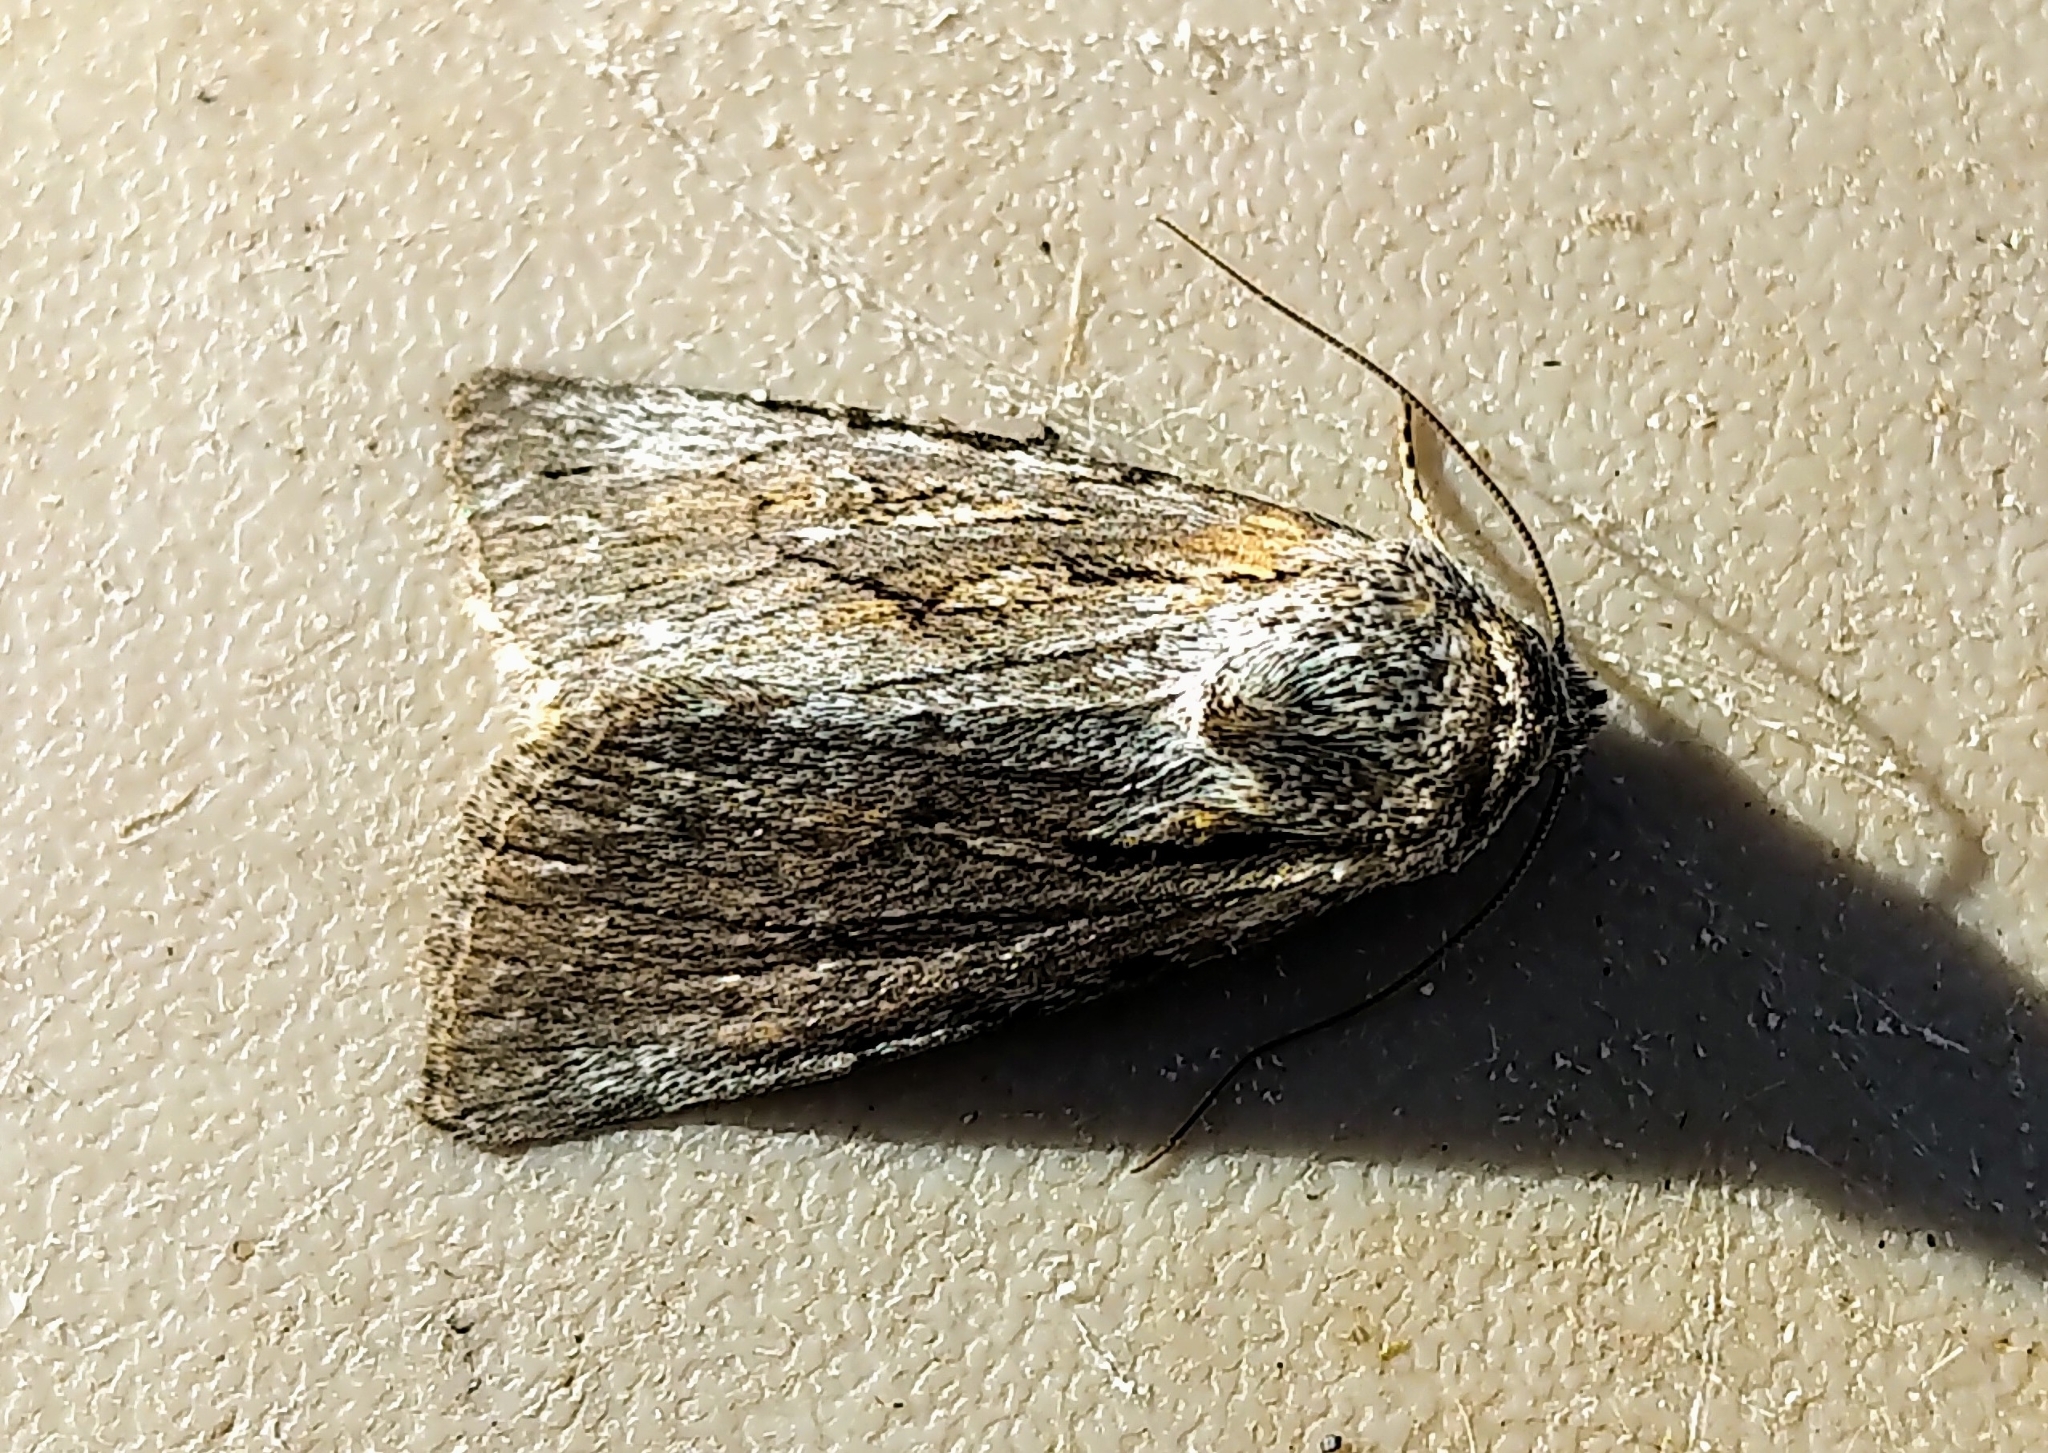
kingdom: Animalia
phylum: Arthropoda
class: Insecta
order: Lepidoptera
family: Noctuidae
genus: Sympistis
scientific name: Sympistis mackiei
